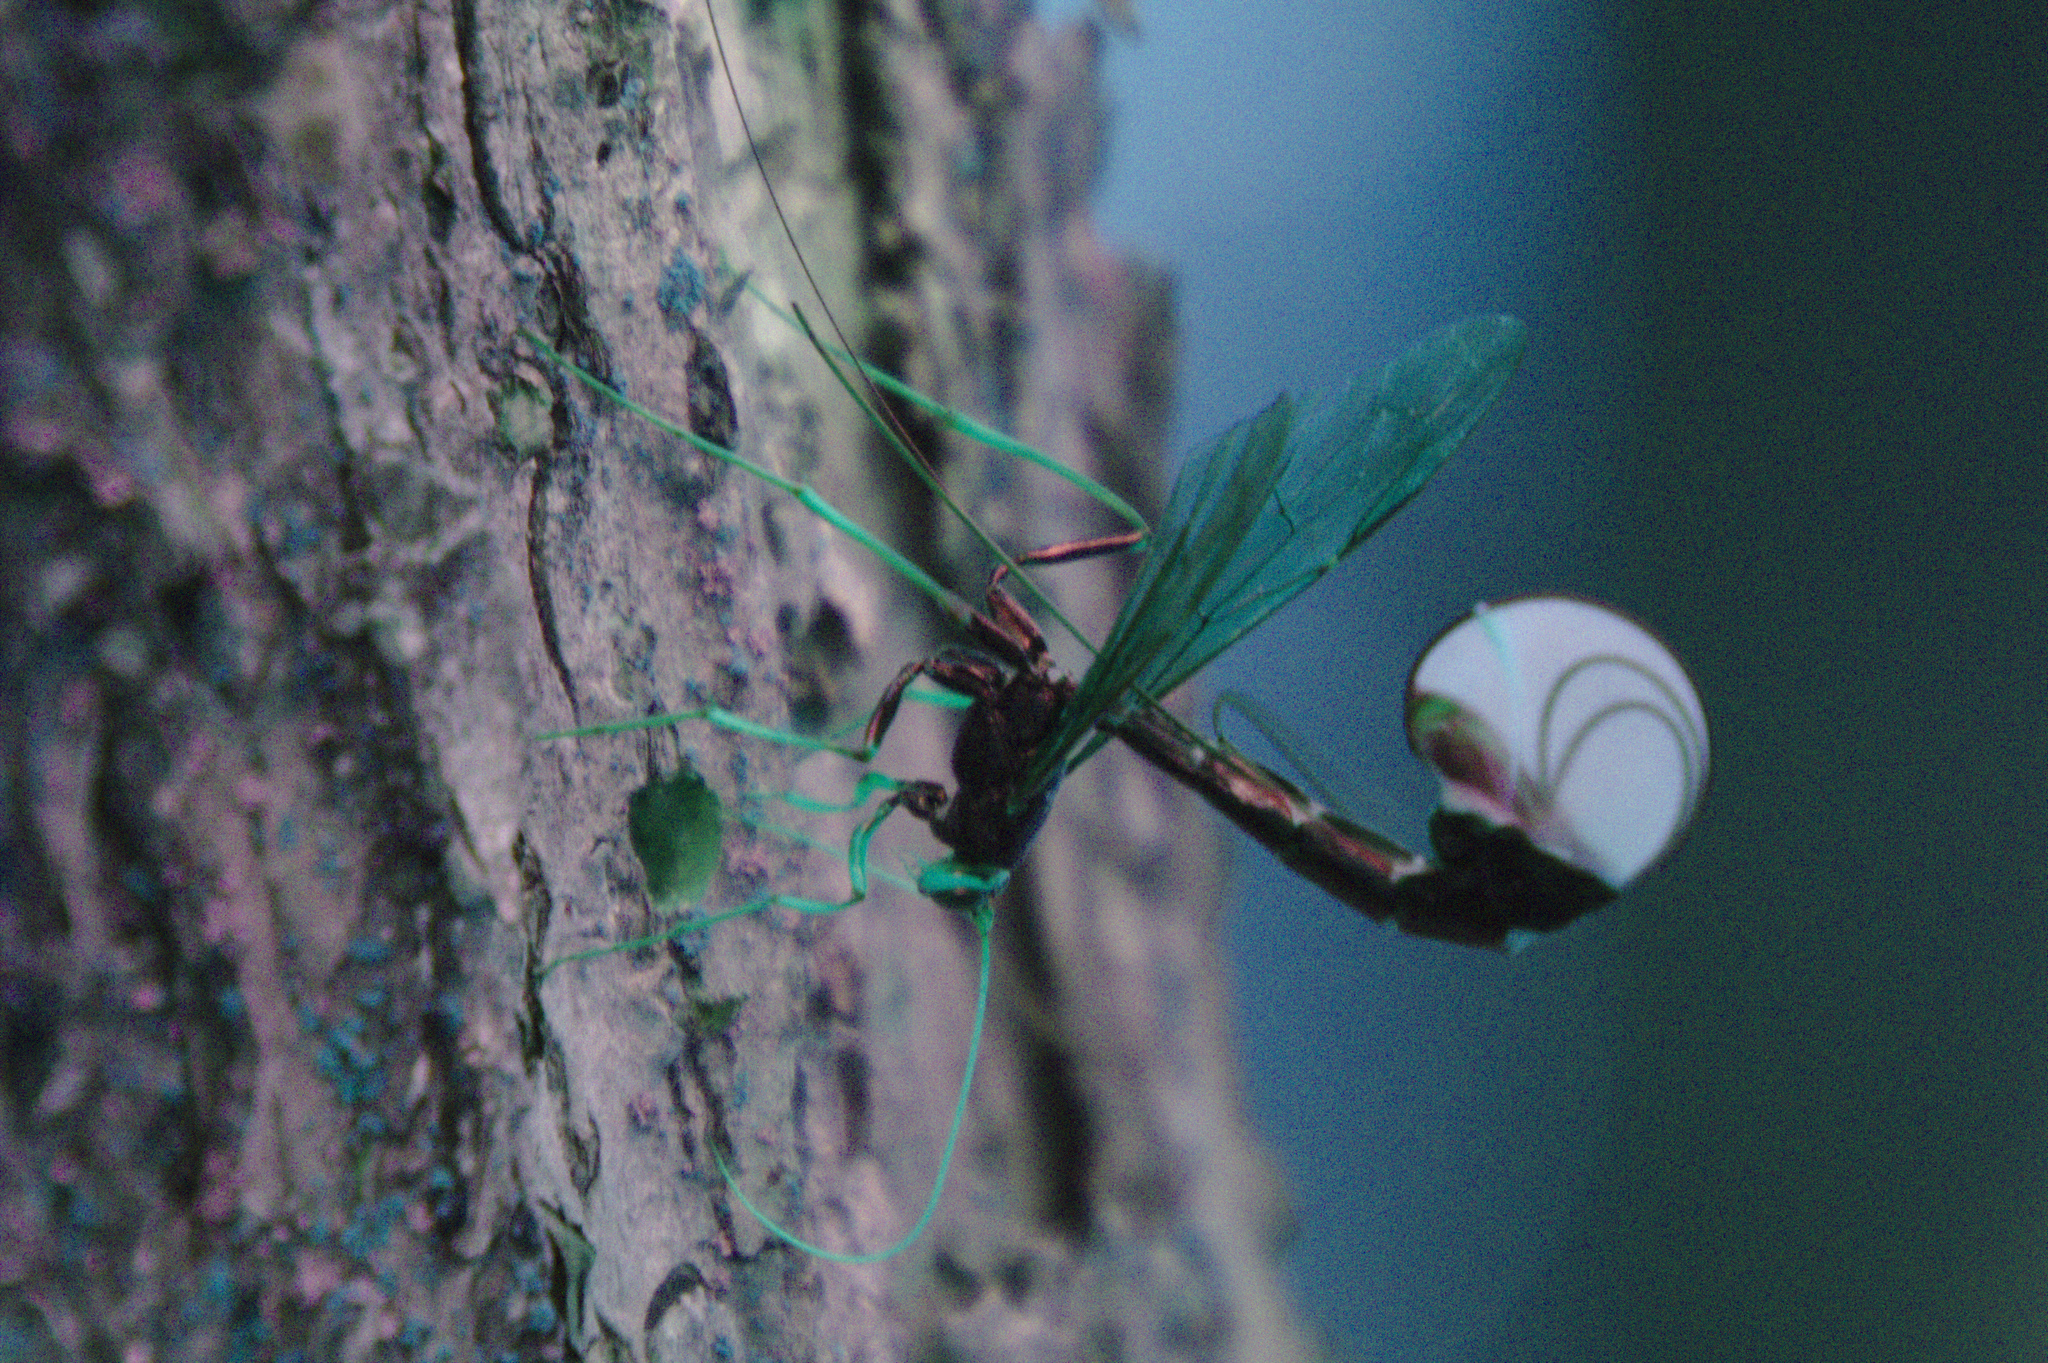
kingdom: Animalia
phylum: Arthropoda
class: Insecta
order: Hymenoptera
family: Ichneumonidae
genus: Megarhyssa
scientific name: Megarhyssa atrata
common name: Black giant ichneumonid wasp
